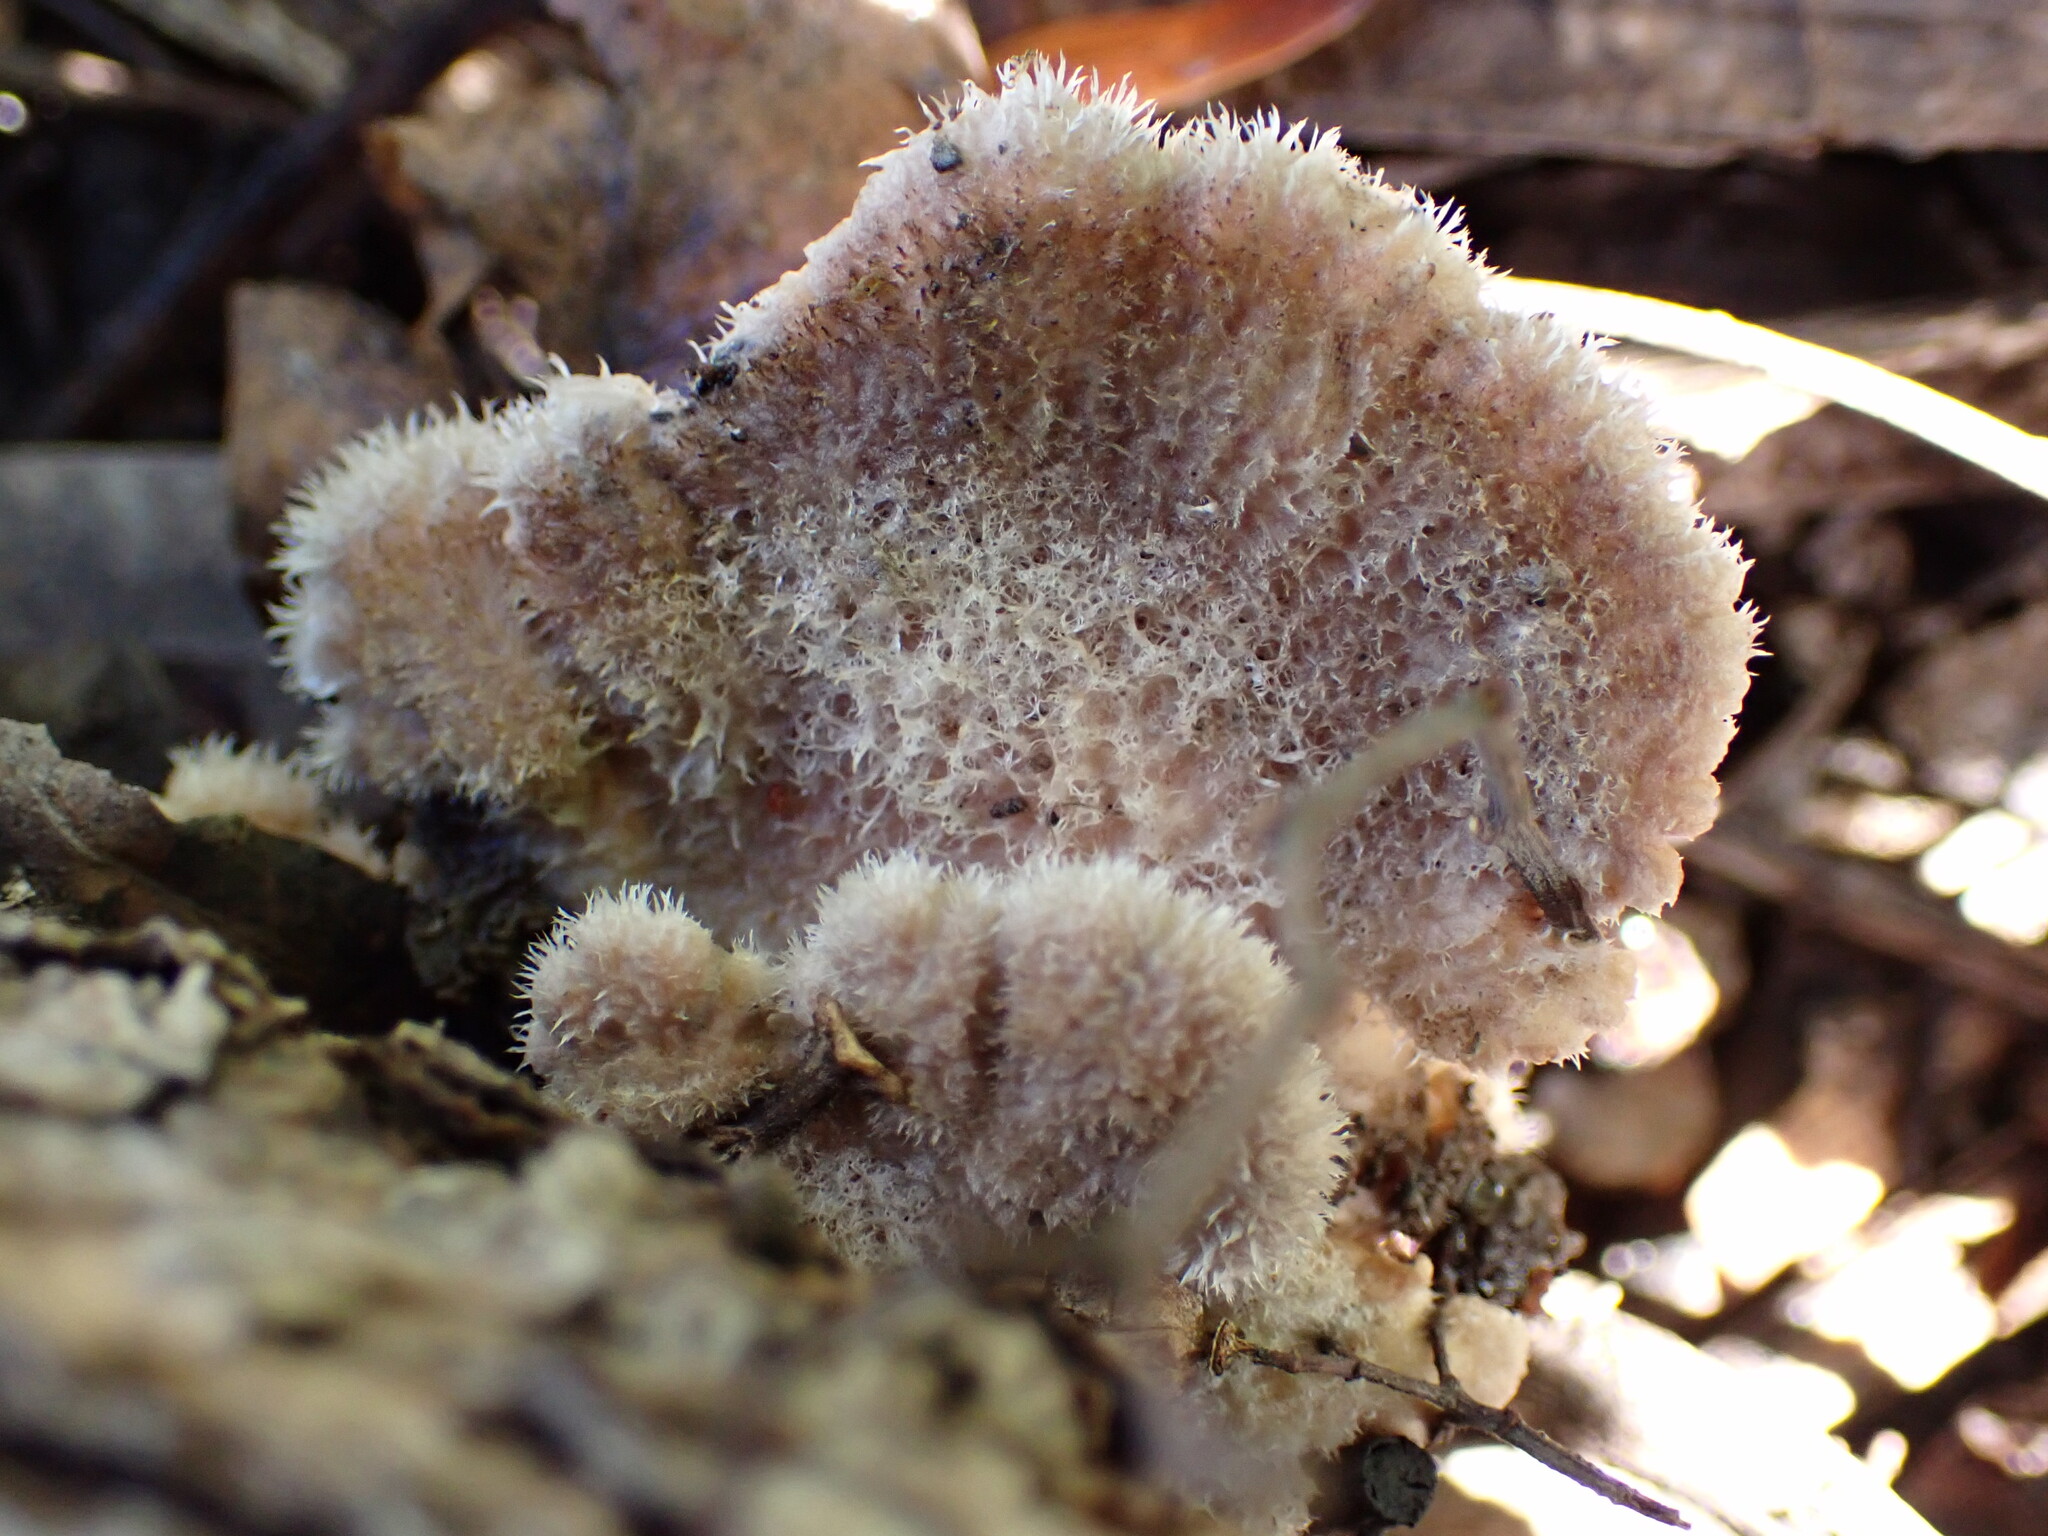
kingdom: Fungi
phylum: Basidiomycota
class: Agaricomycetes
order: Agaricales
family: Schizophyllaceae
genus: Schizophyllum
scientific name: Schizophyllum commune
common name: Common porecrust
